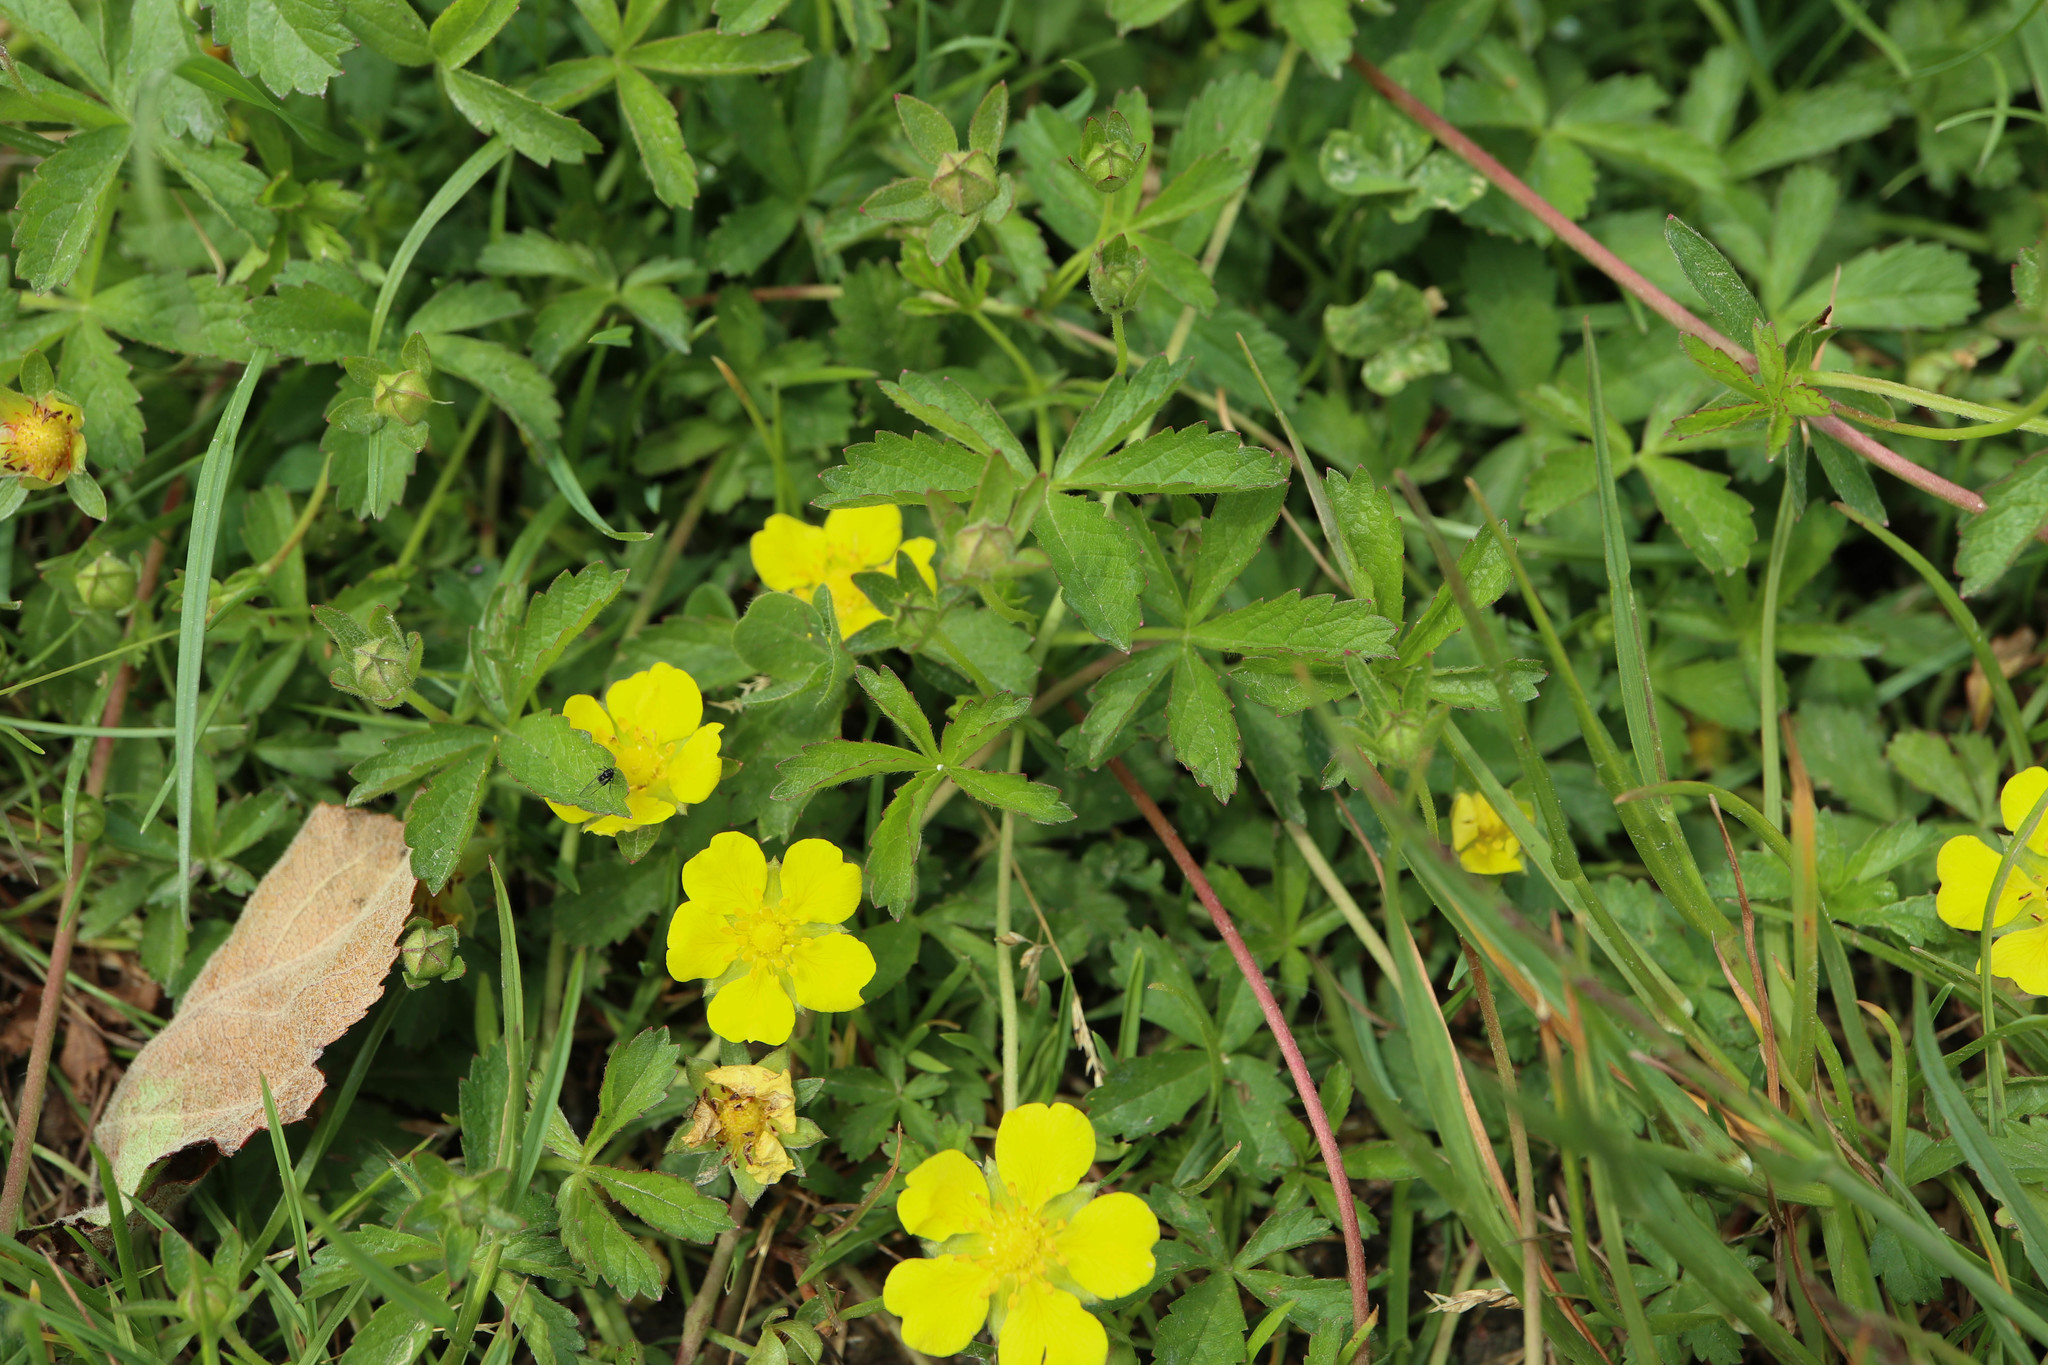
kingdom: Plantae
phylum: Tracheophyta
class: Magnoliopsida
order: Rosales
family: Rosaceae
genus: Potentilla
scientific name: Potentilla reptans
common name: Creeping cinquefoil
